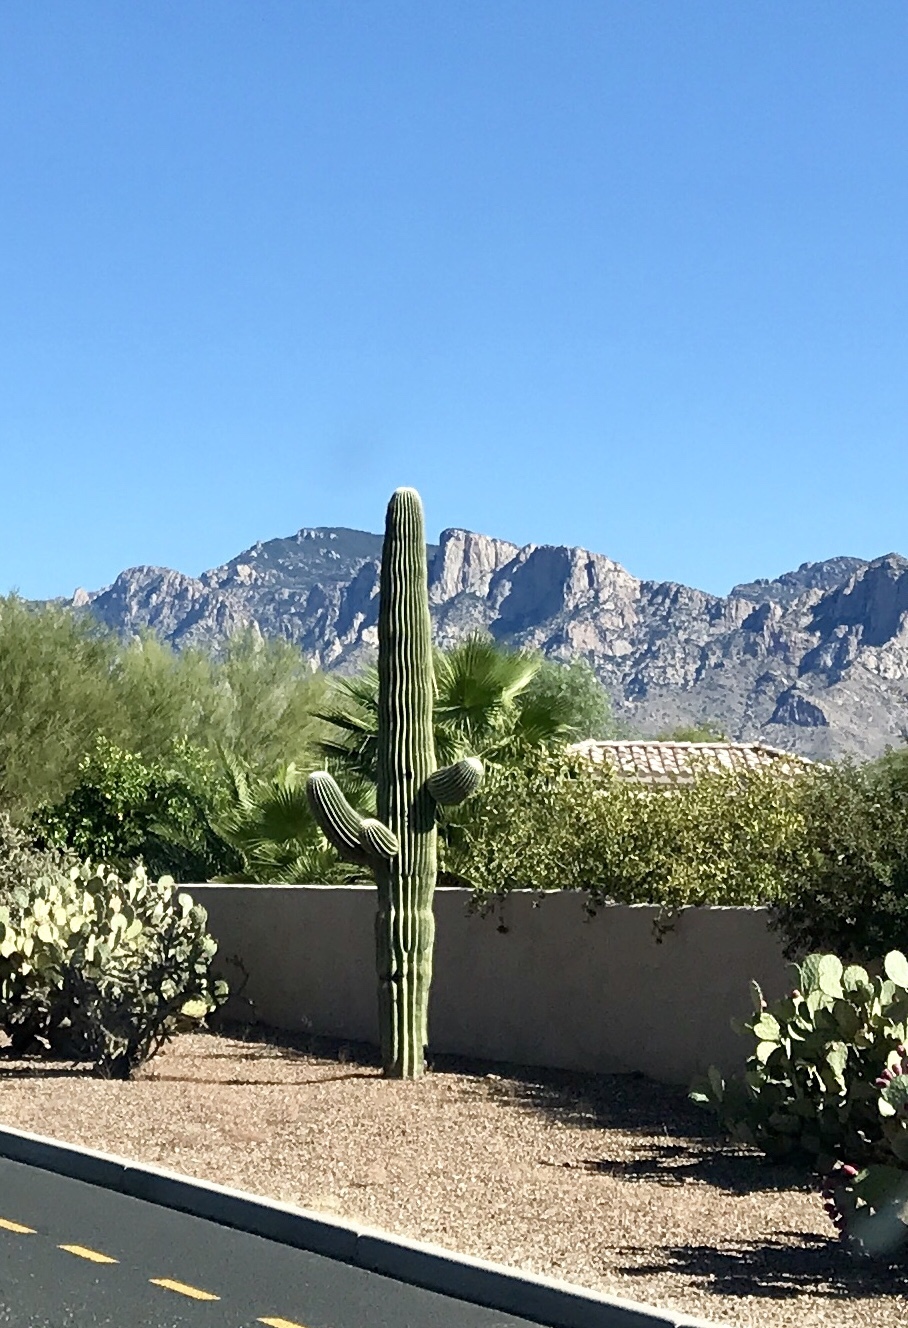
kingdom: Plantae
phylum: Tracheophyta
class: Magnoliopsida
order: Caryophyllales
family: Cactaceae
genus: Carnegiea
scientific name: Carnegiea gigantea
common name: Saguaro
